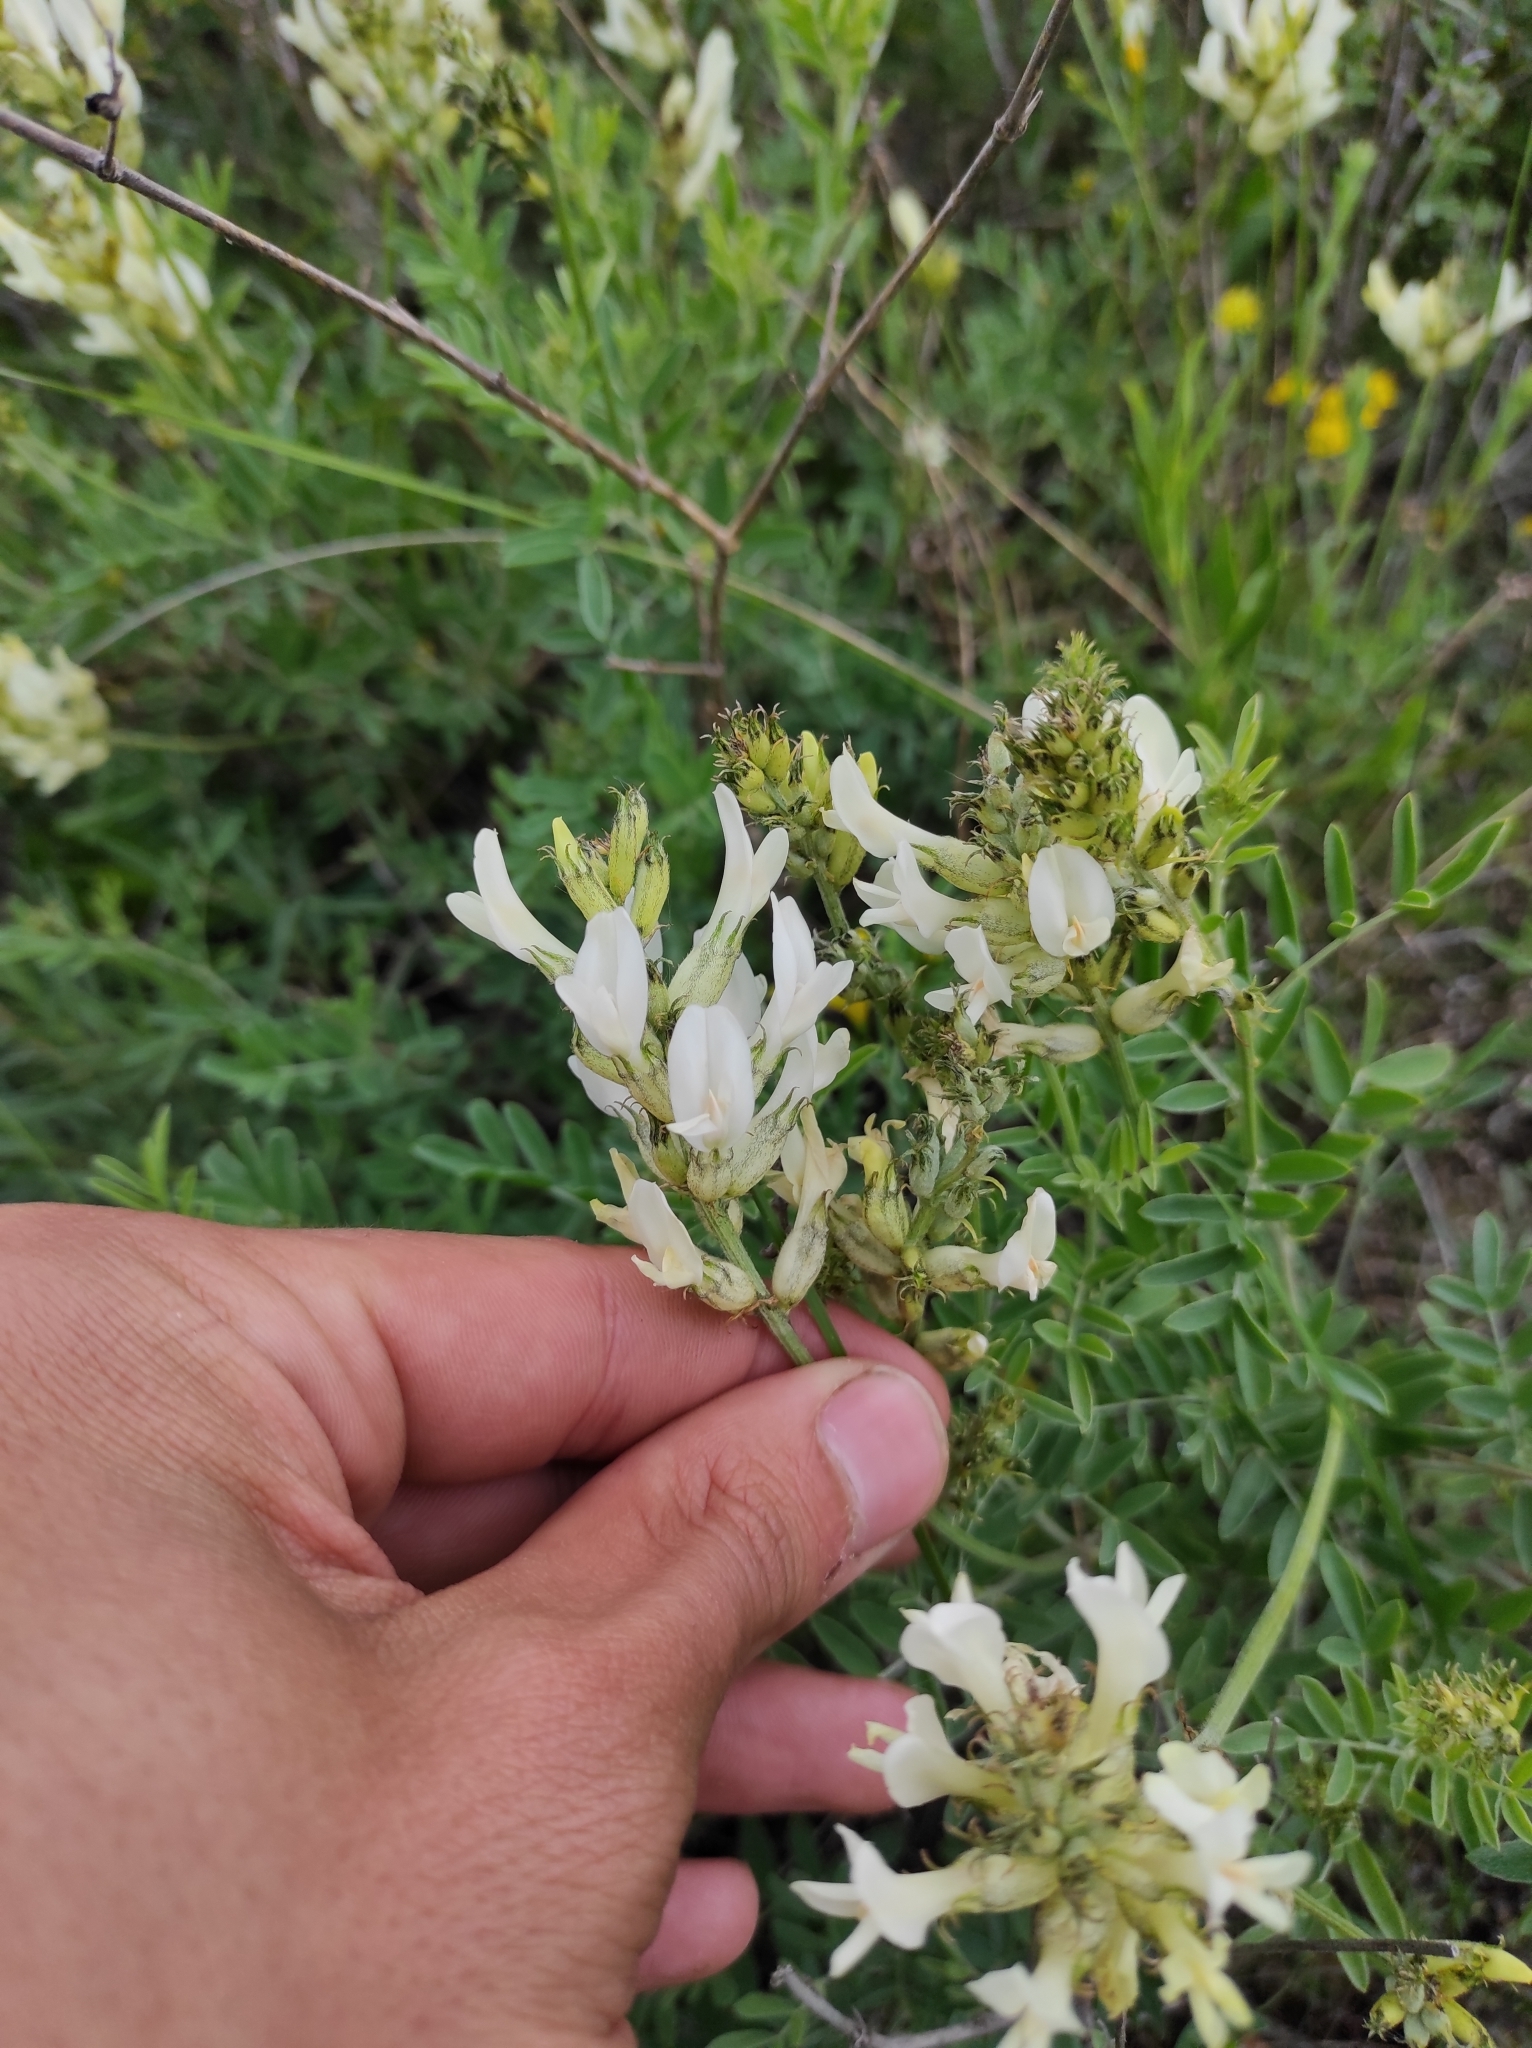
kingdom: Plantae
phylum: Tracheophyta
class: Magnoliopsida
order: Fabales
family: Fabaceae
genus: Astragalus
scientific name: Astragalus albicaulis
